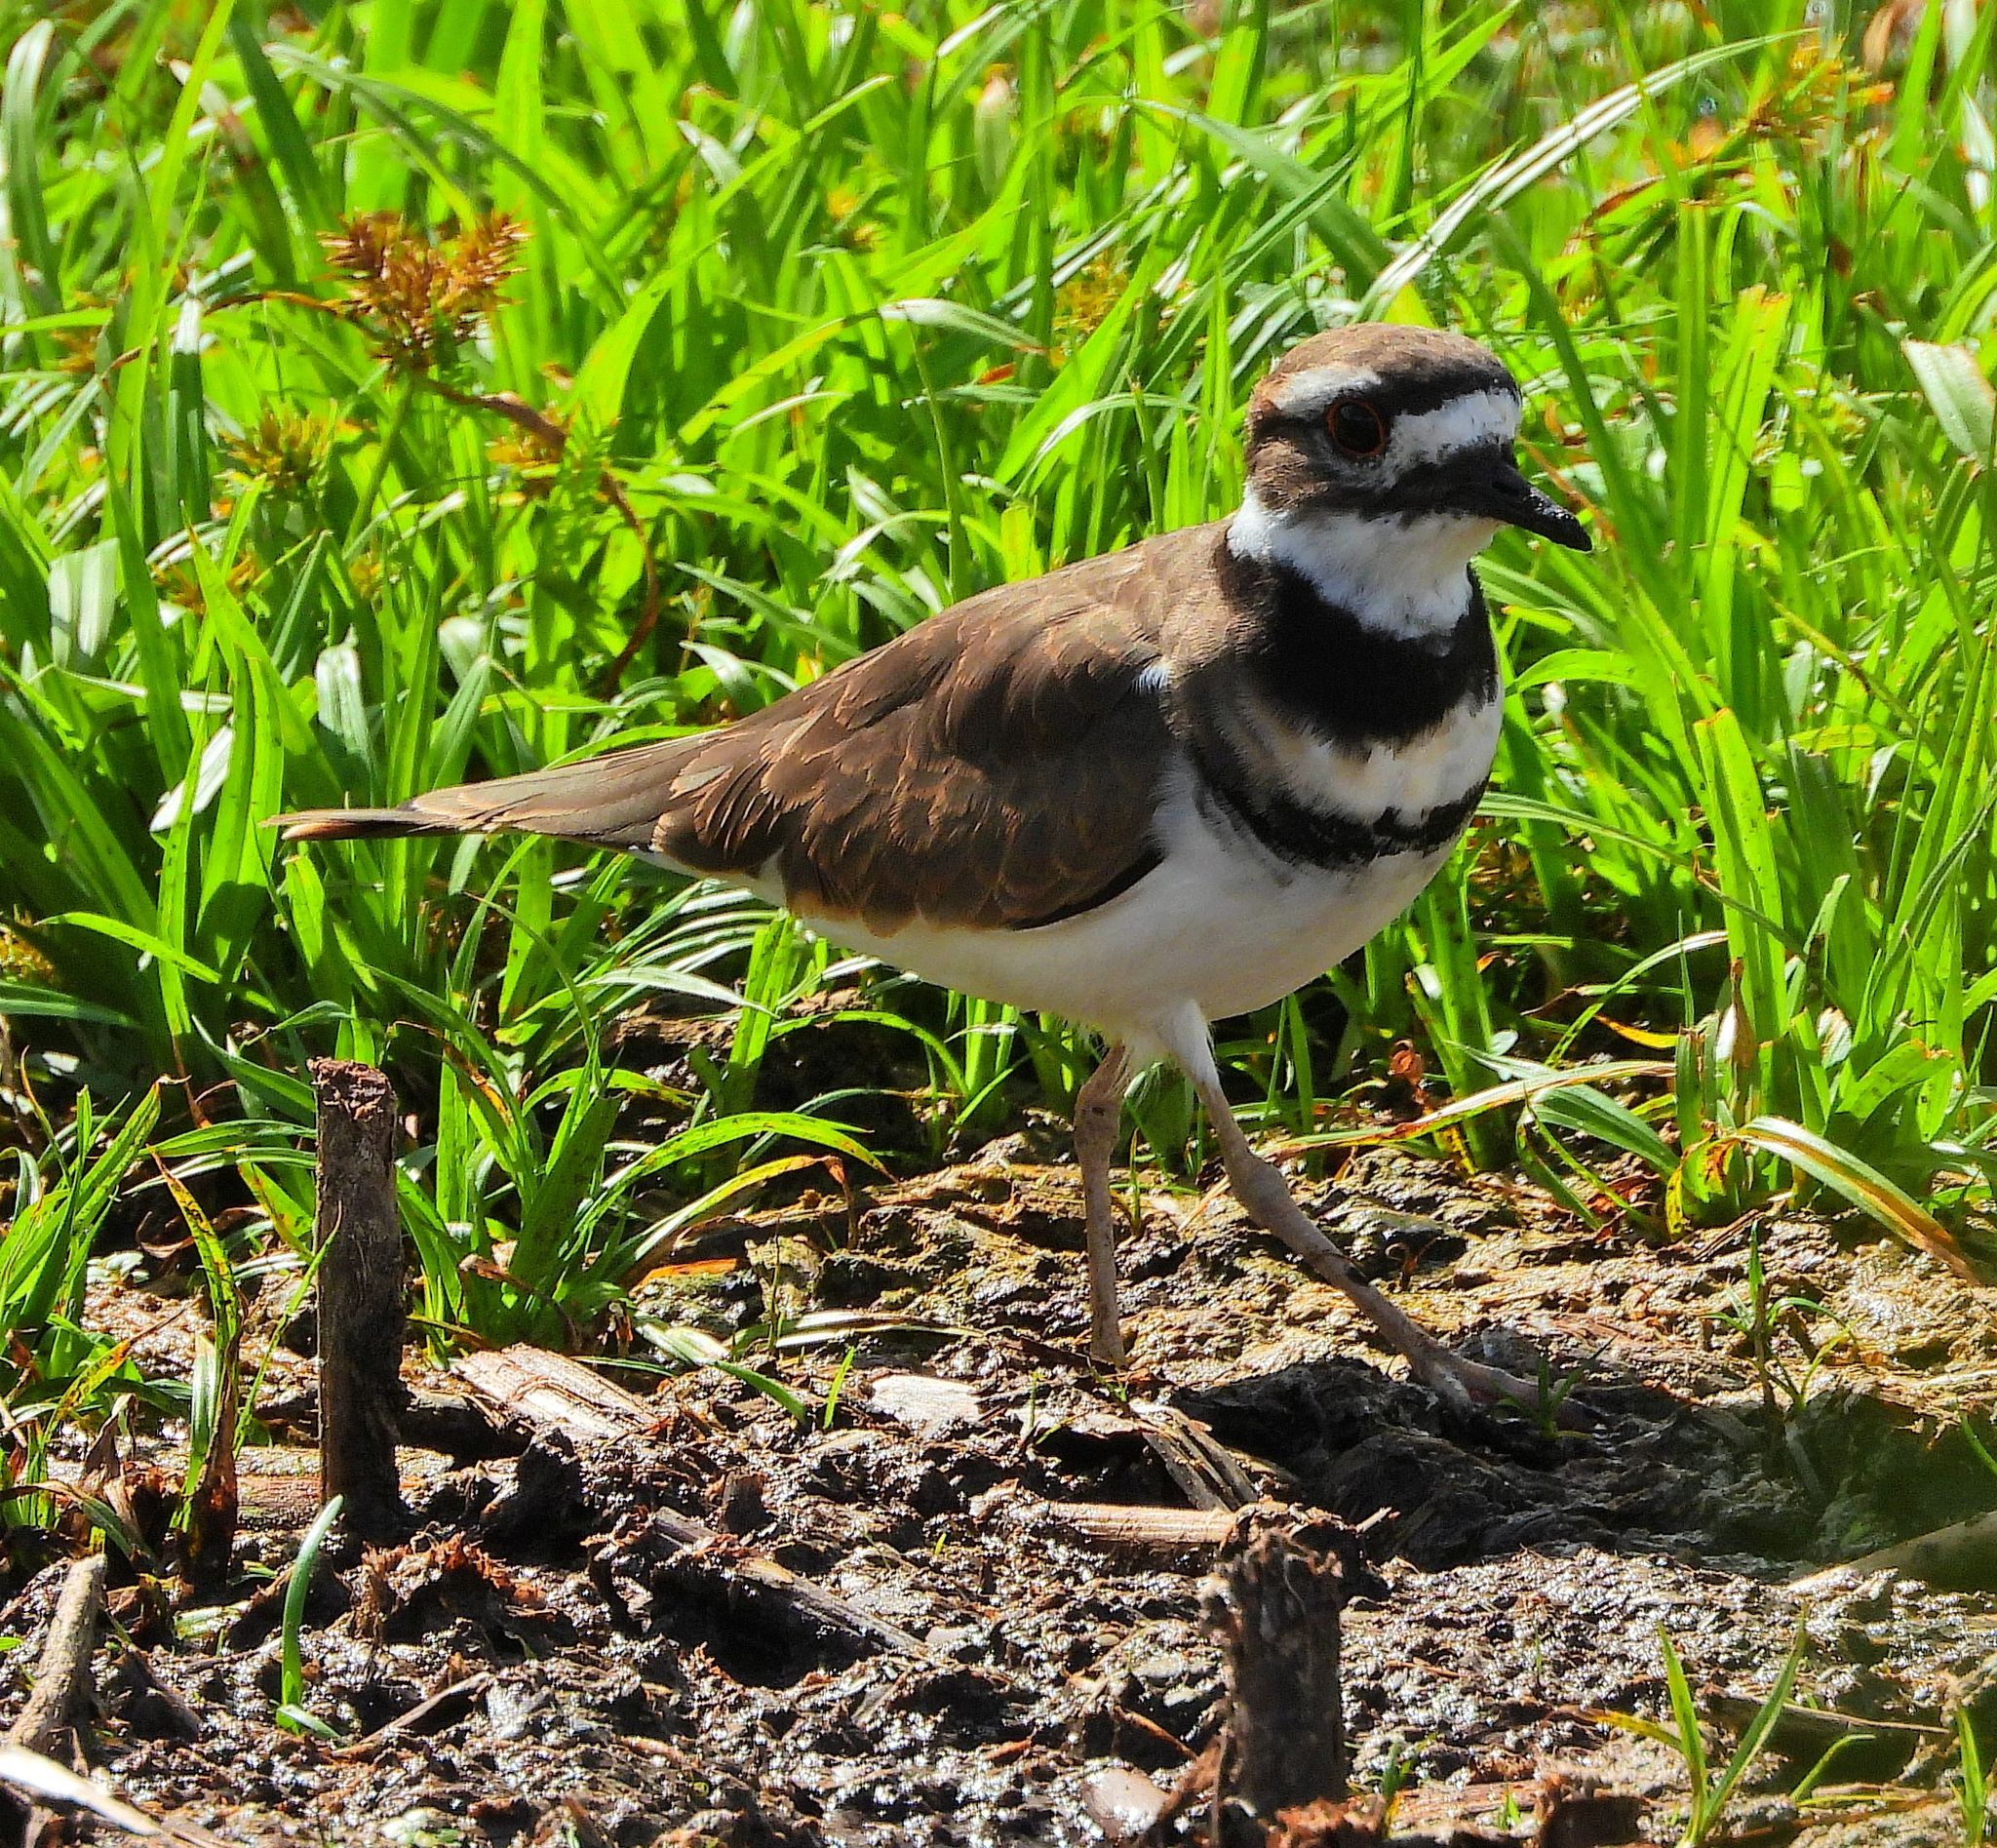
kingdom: Animalia
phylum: Chordata
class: Aves
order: Charadriiformes
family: Charadriidae
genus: Charadrius
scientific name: Charadrius vociferus
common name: Killdeer
